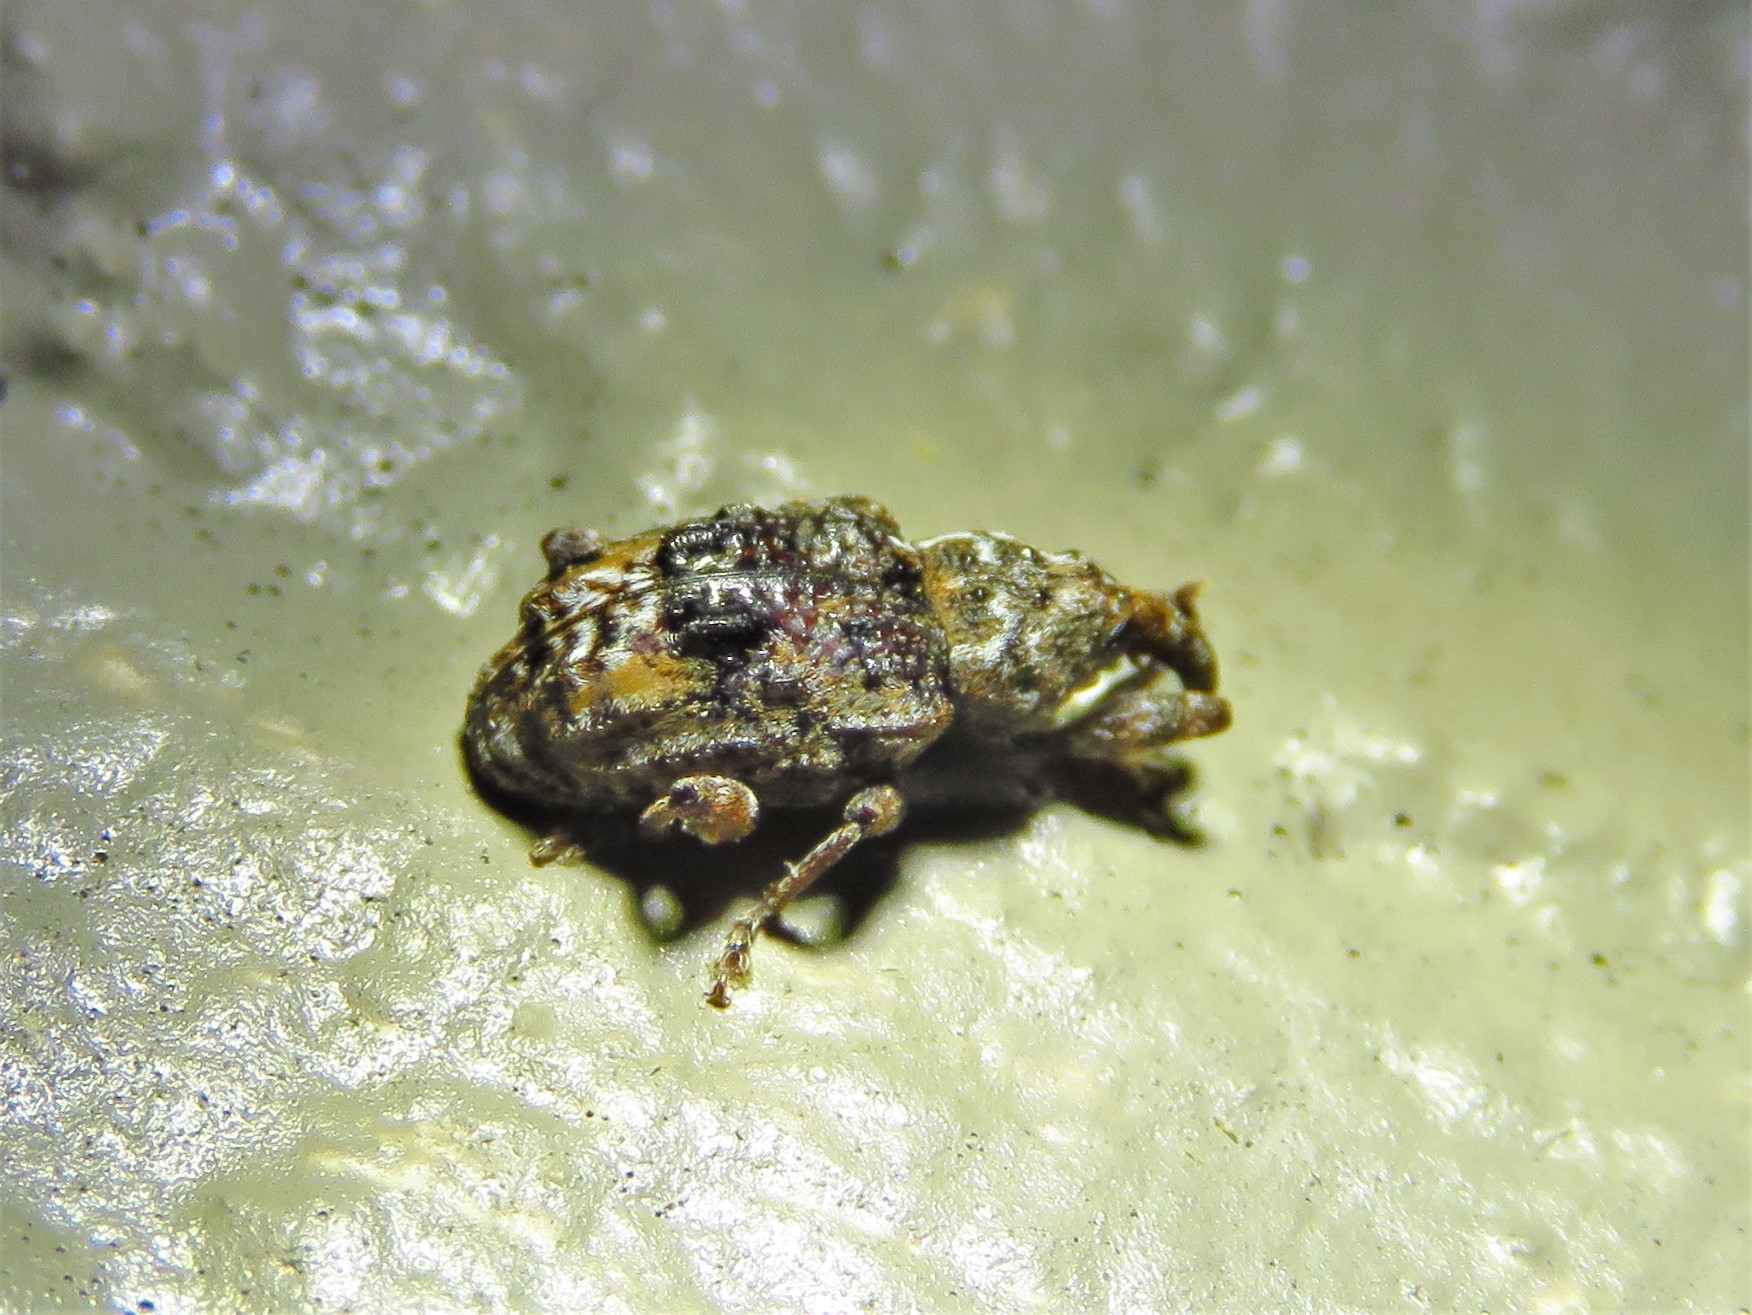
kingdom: Animalia
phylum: Arthropoda
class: Insecta
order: Coleoptera
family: Curculionidae
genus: Conotrachelus
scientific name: Conotrachelus nenuphar
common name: Plum curculio
